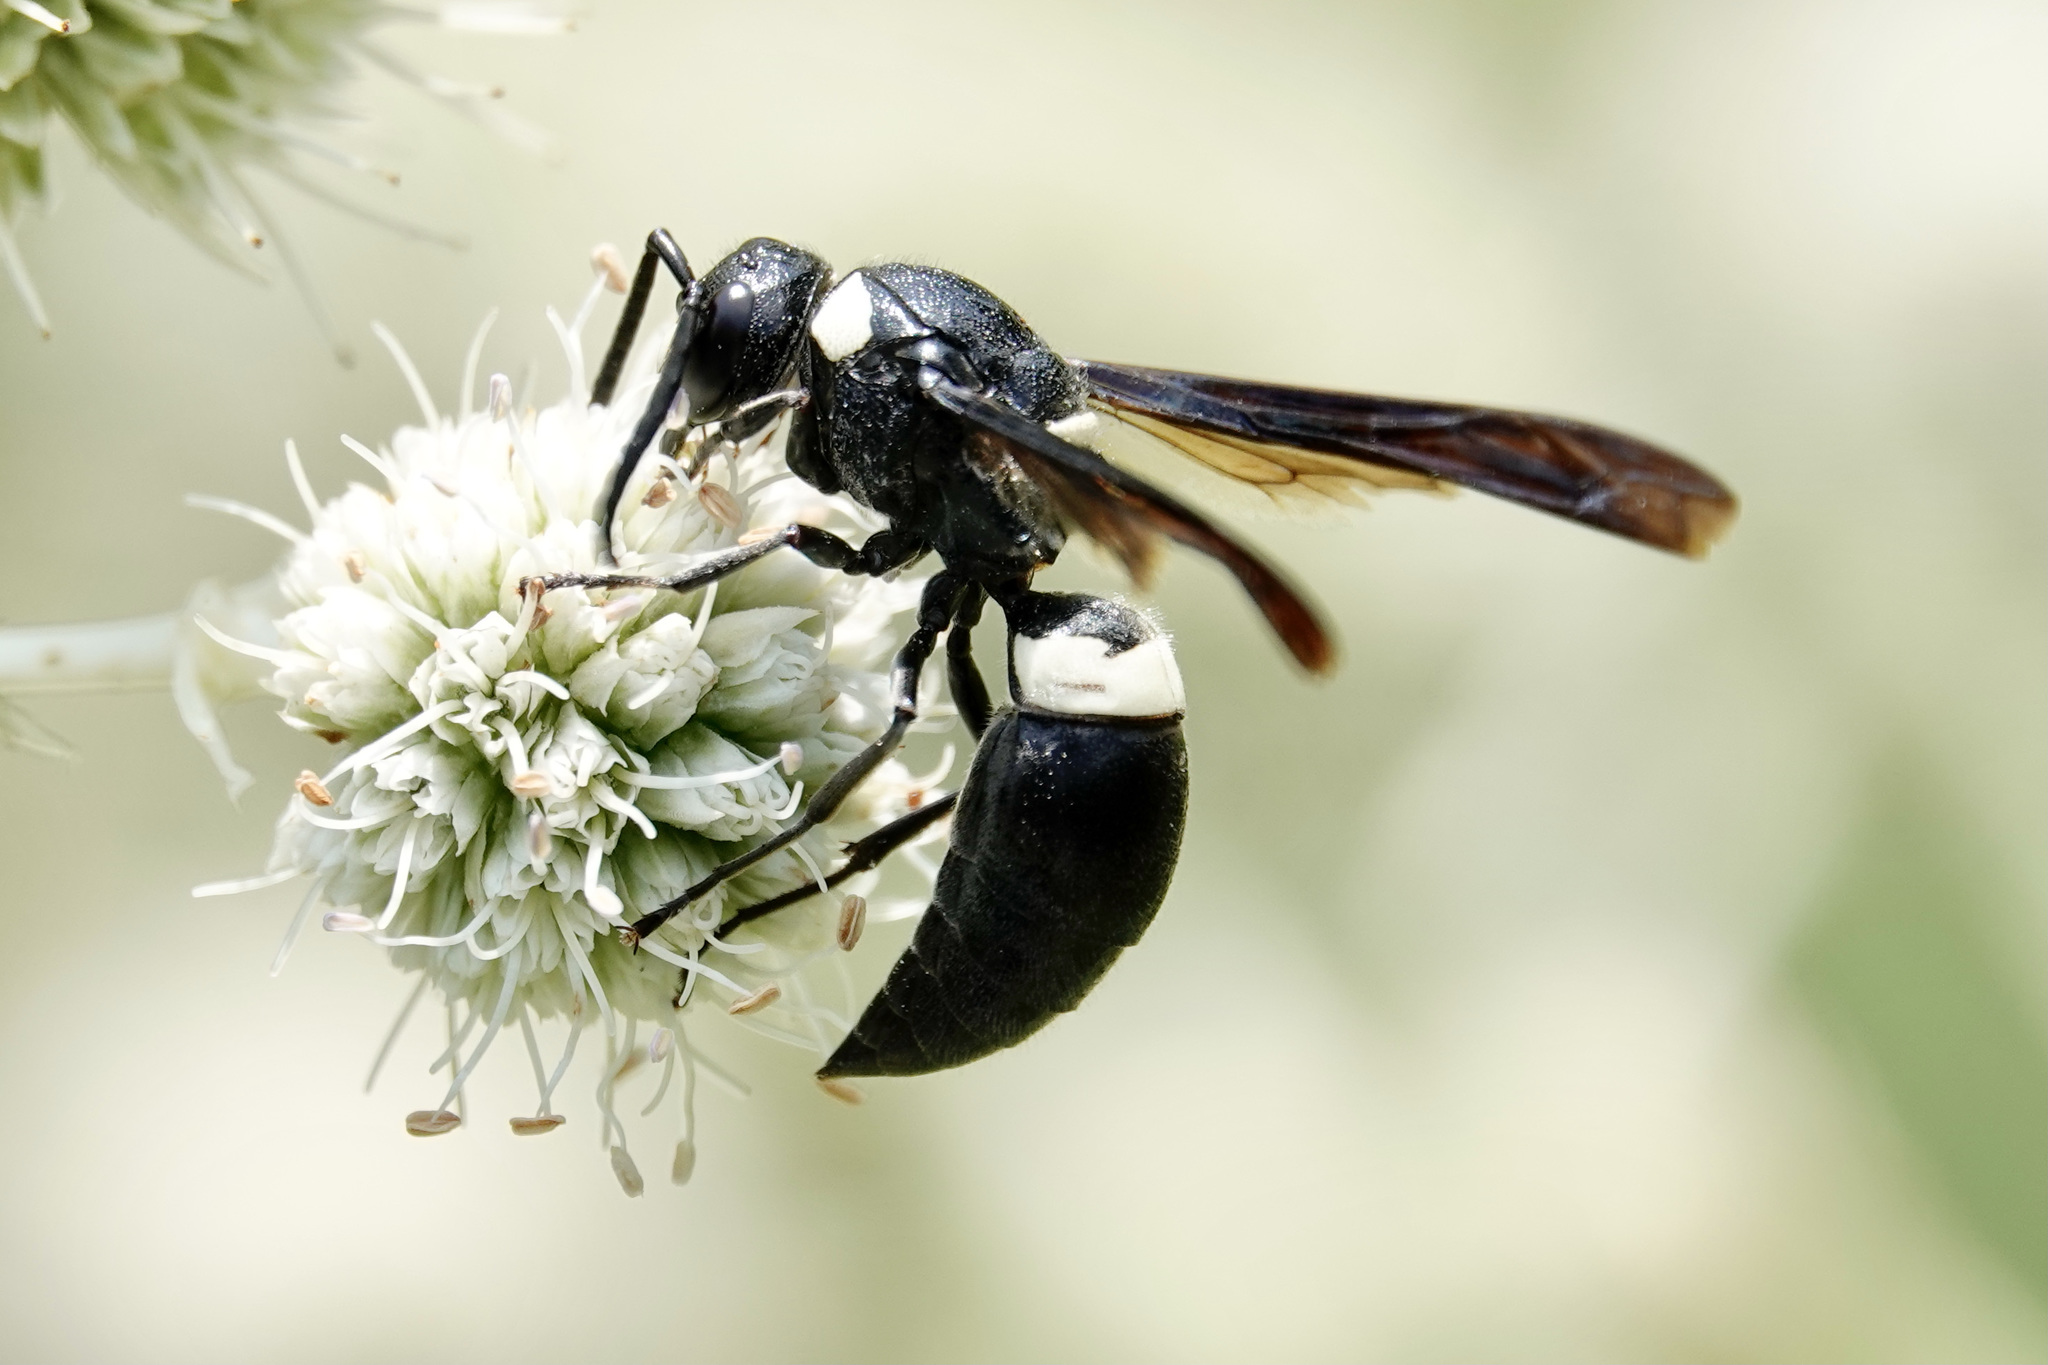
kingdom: Animalia
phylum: Arthropoda
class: Insecta
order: Hymenoptera
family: Eumenidae
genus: Monobia
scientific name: Monobia quadridens
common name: Four-toothed mason wasp
